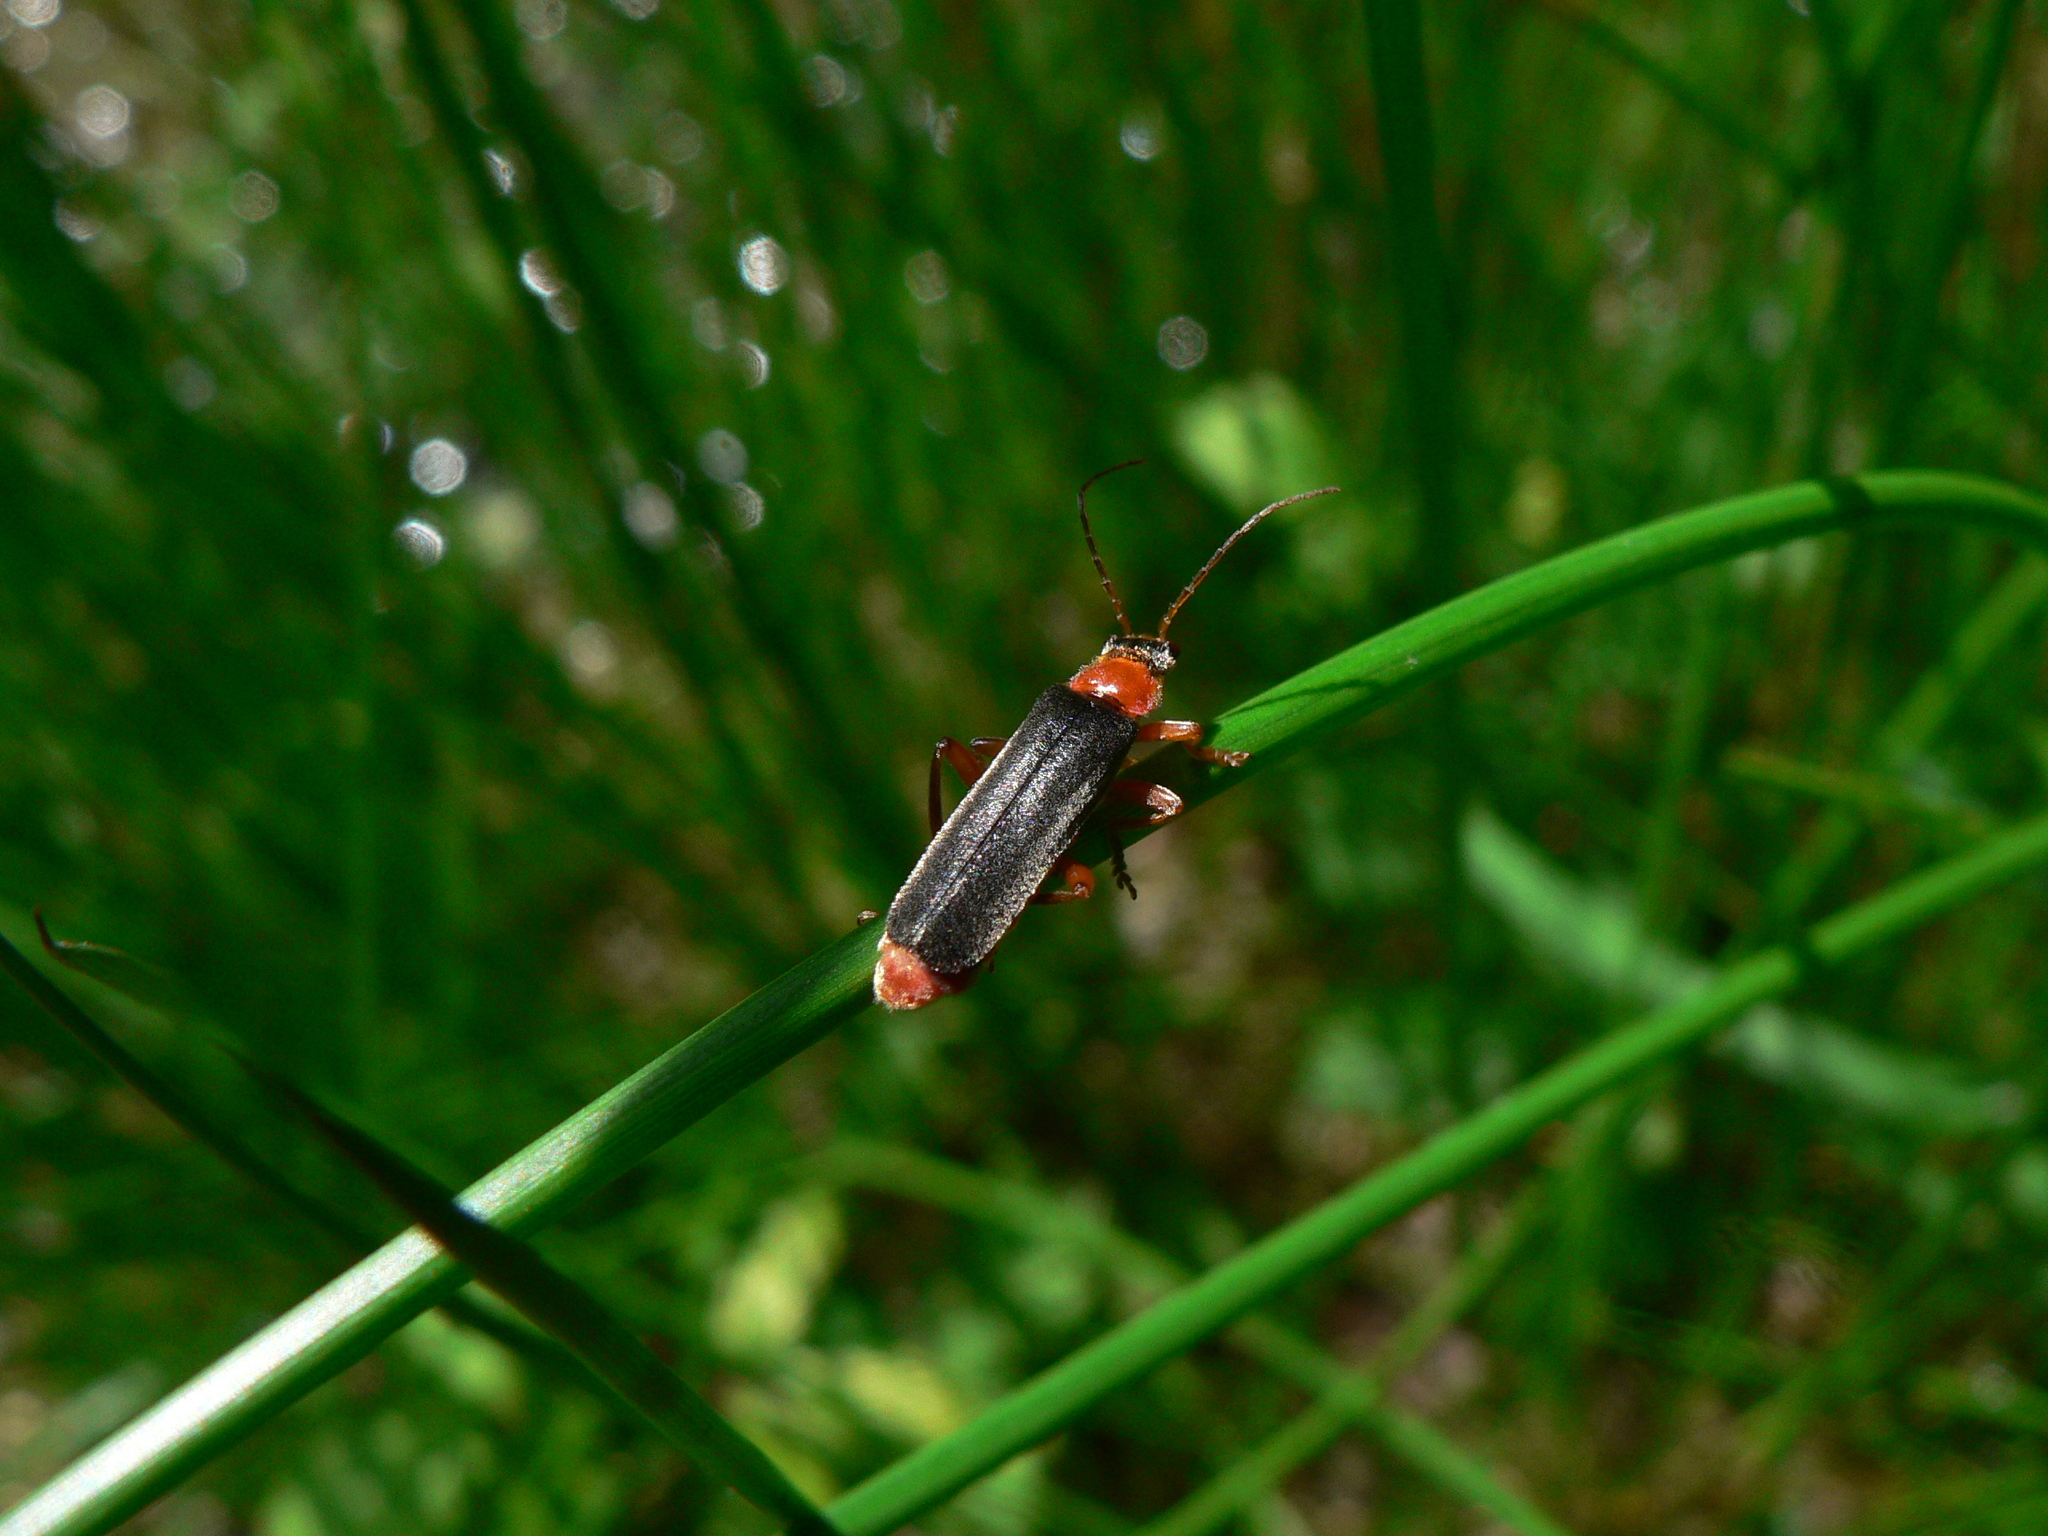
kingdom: Animalia
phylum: Arthropoda
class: Insecta
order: Coleoptera
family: Cantharidae
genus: Cantharis
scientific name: Cantharis pellucida
